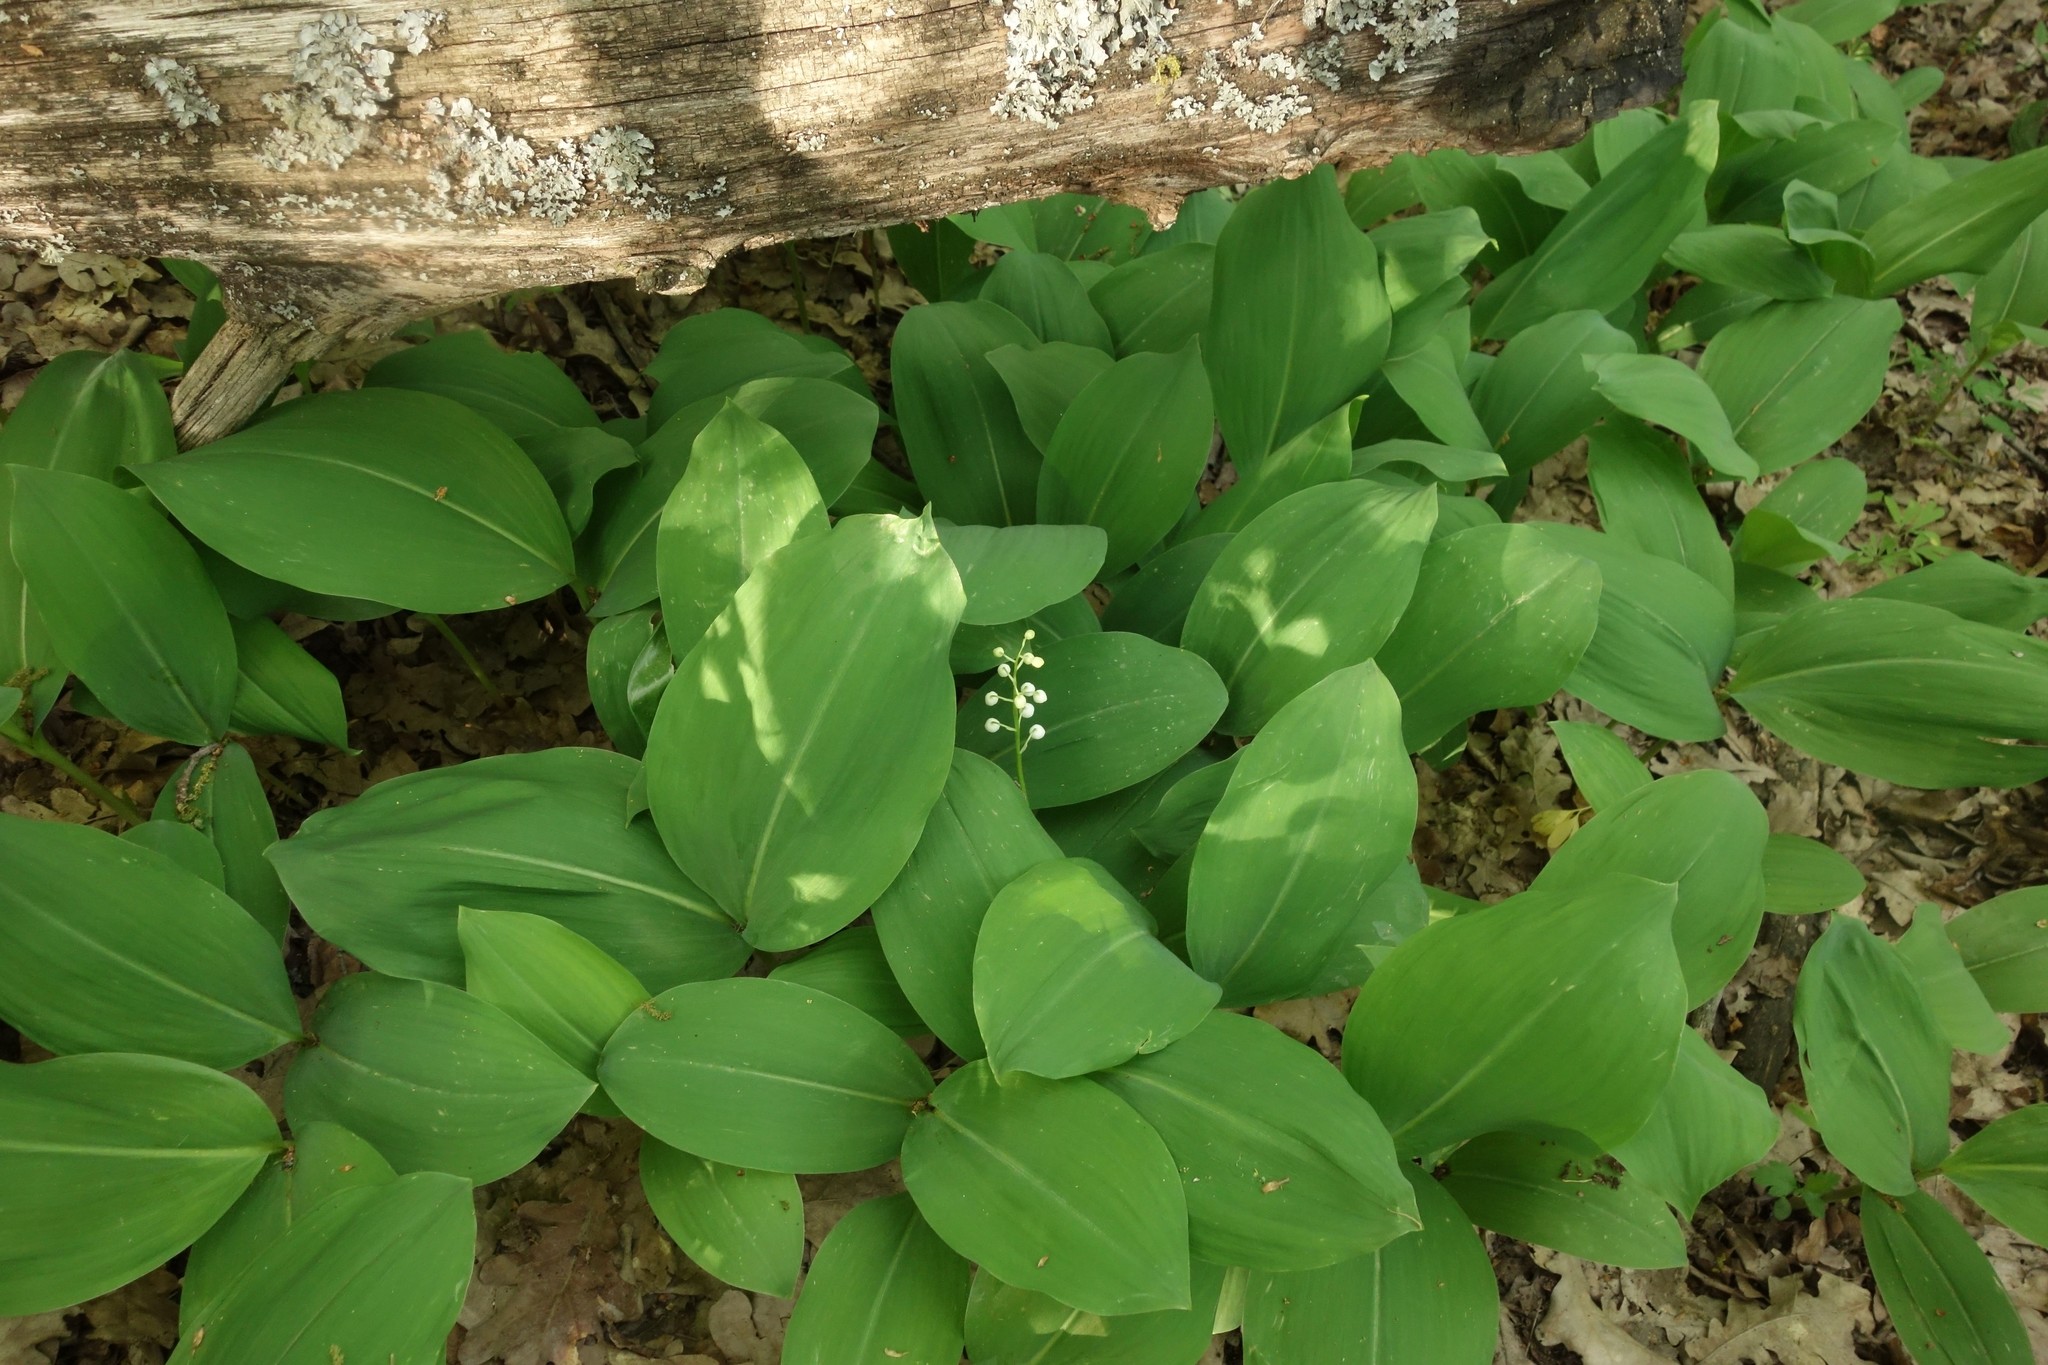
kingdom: Plantae
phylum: Tracheophyta
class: Liliopsida
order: Asparagales
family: Asparagaceae
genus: Convallaria
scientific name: Convallaria majalis
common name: Lily-of-the-valley
